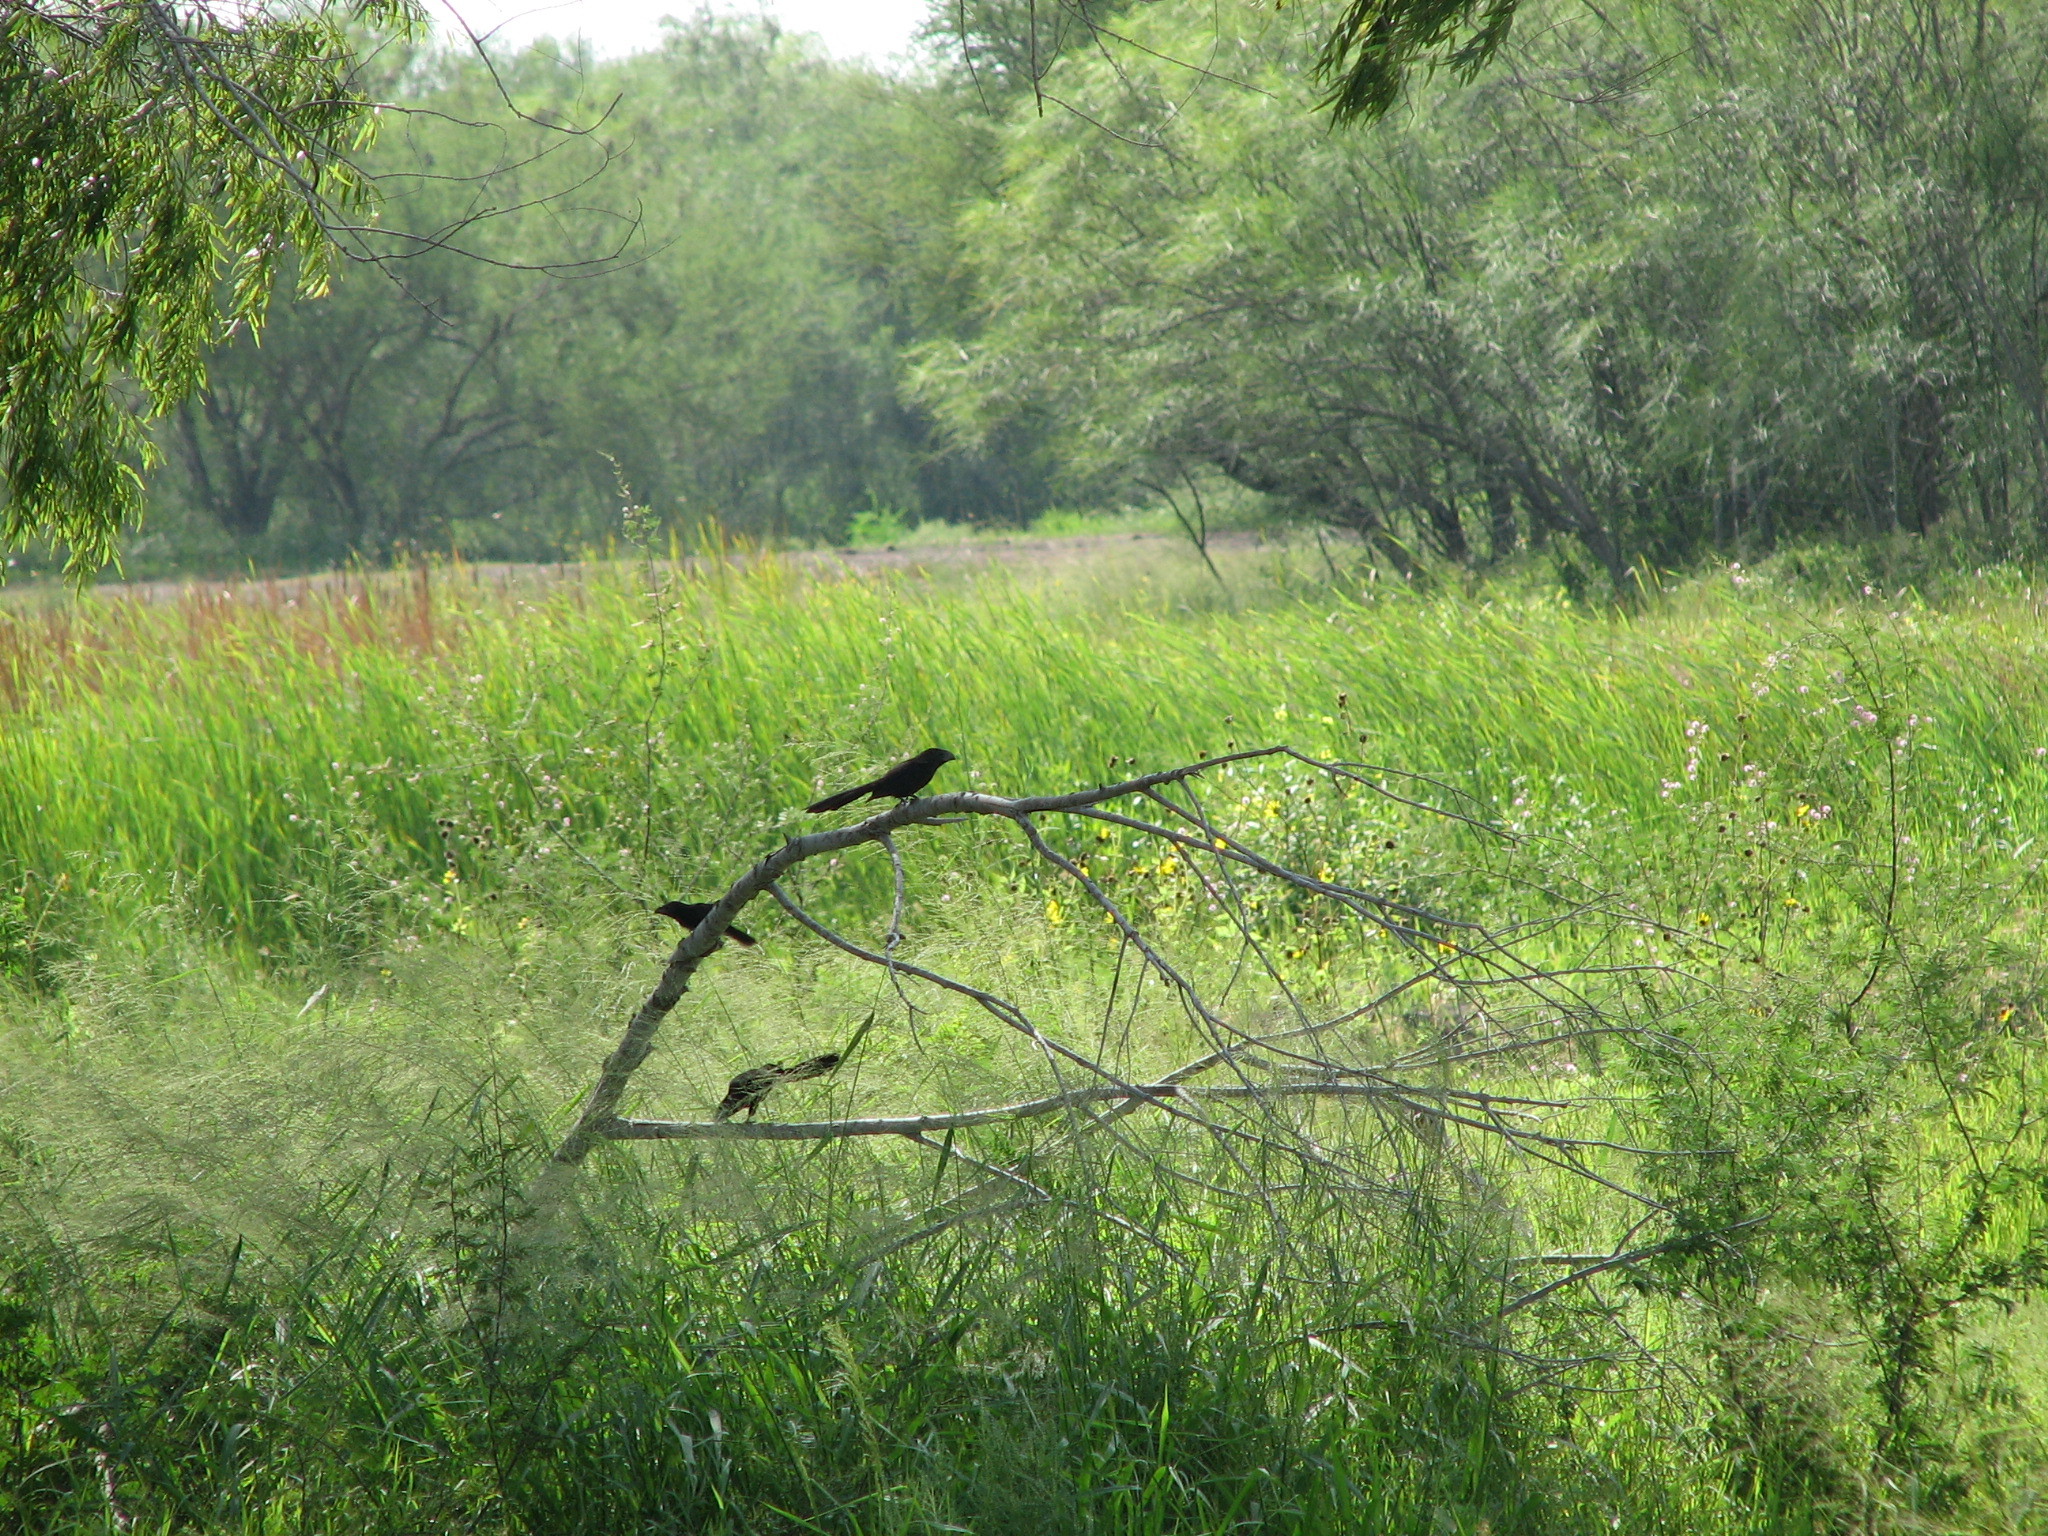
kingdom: Animalia
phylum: Chordata
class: Aves
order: Cuculiformes
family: Cuculidae
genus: Crotophaga
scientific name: Crotophaga sulcirostris
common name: Groove-billed ani
